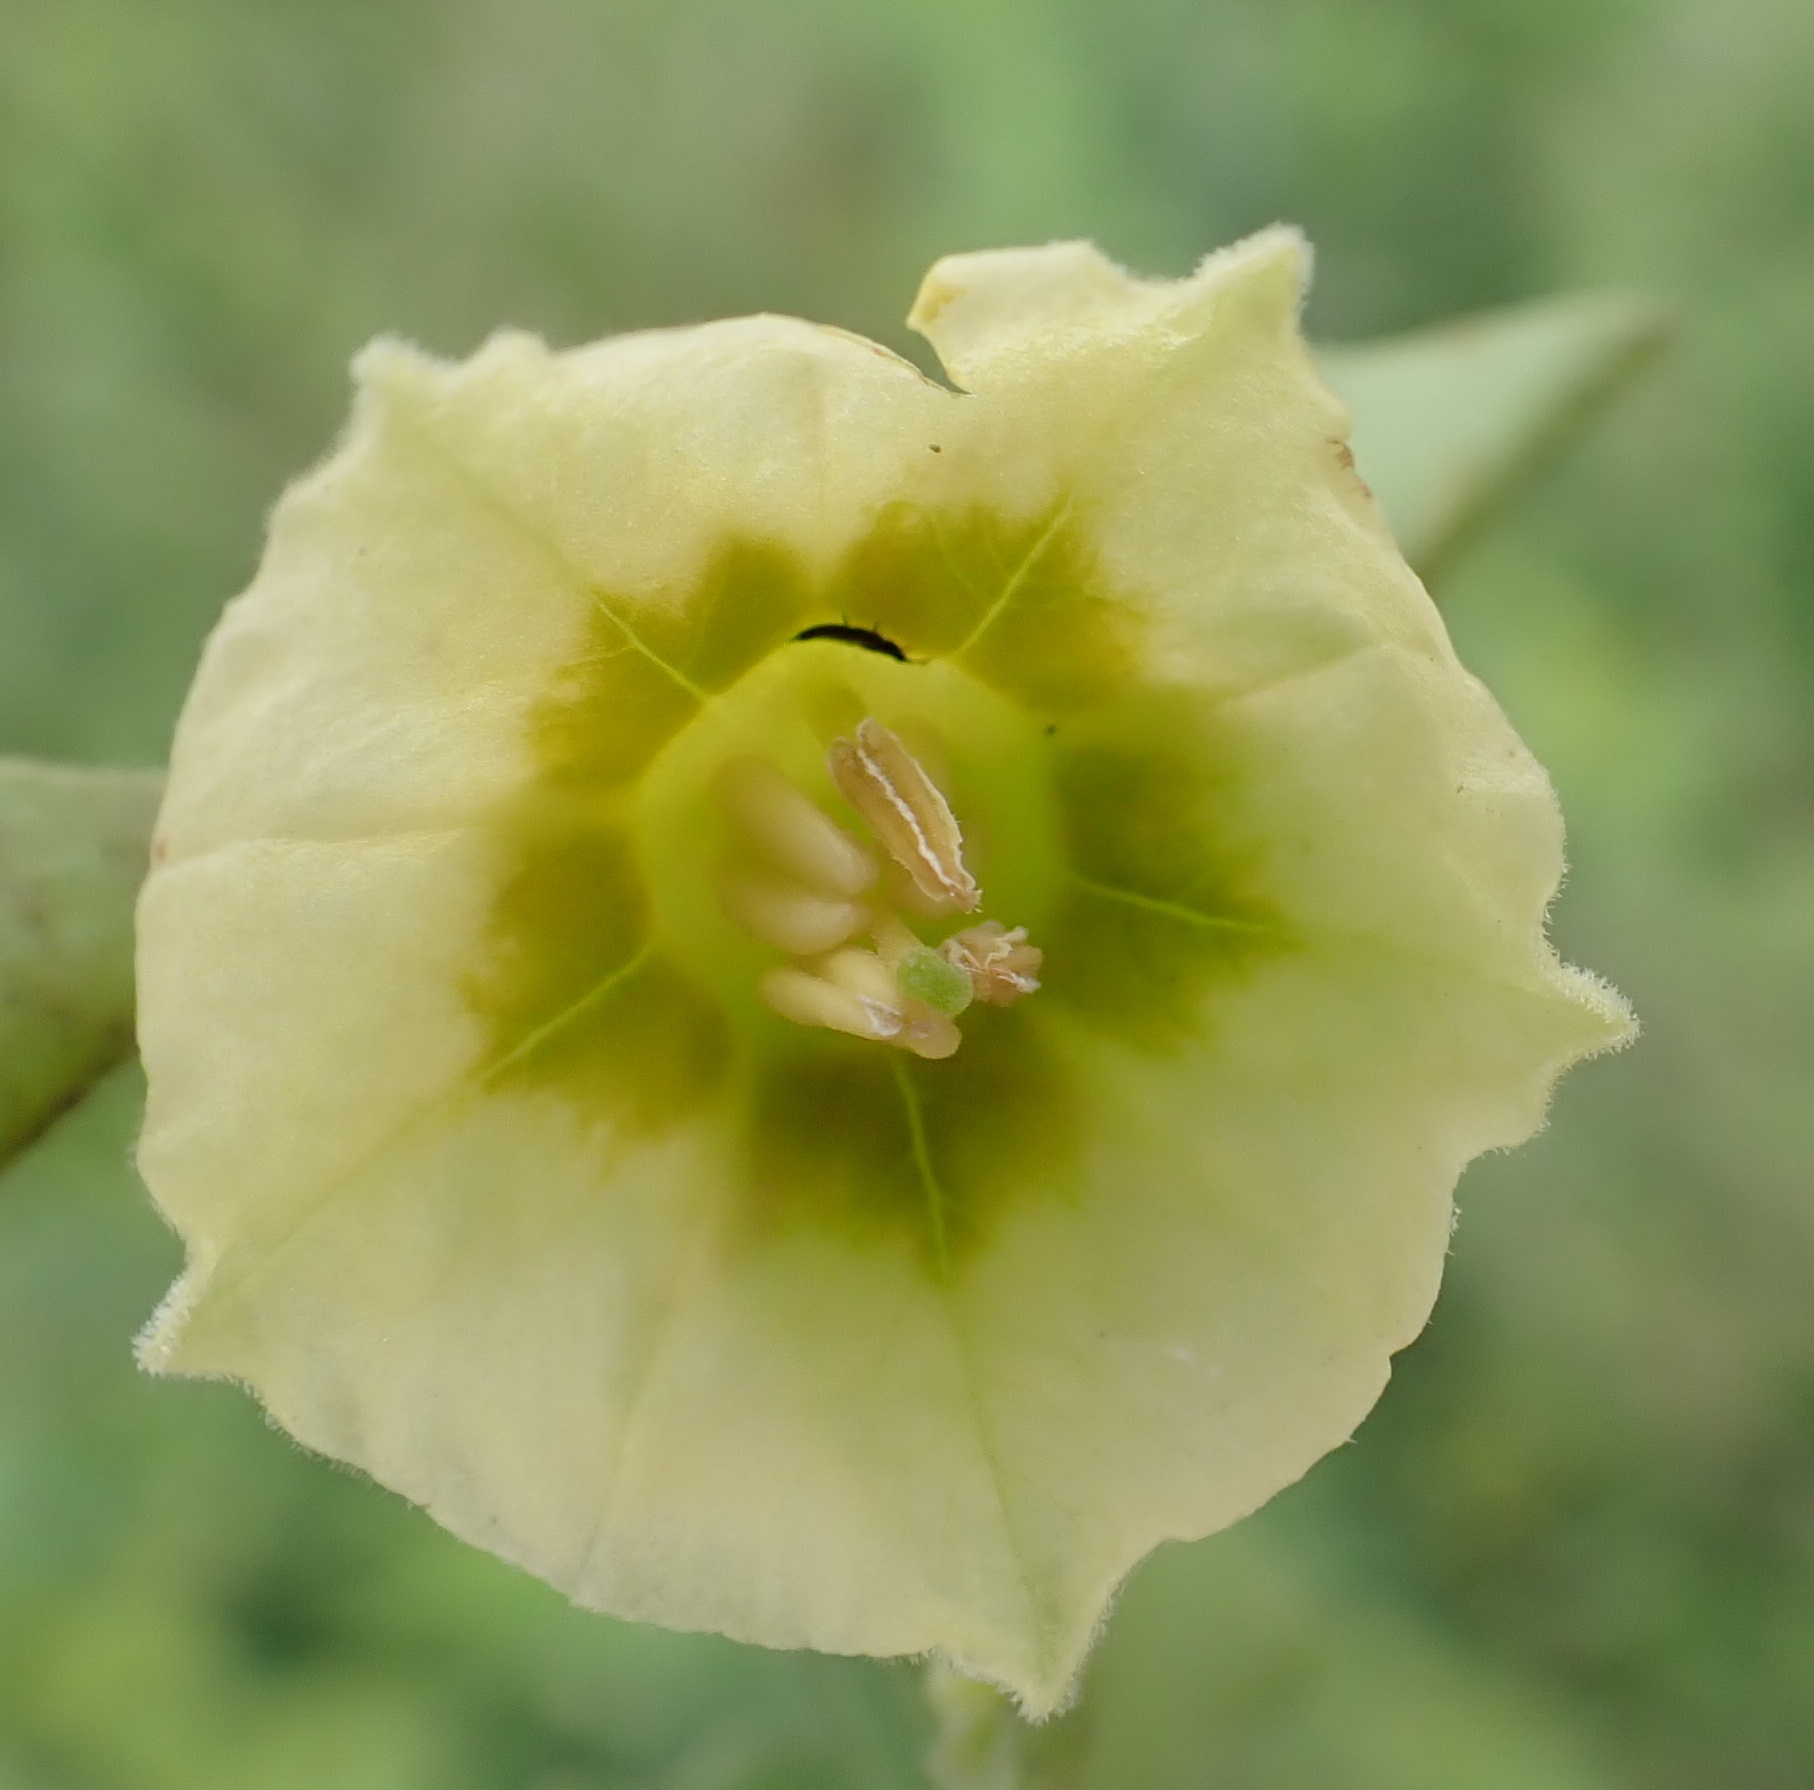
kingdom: Plantae
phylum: Tracheophyta
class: Magnoliopsida
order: Solanales
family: Solanaceae
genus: Physalis
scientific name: Physalis viscosa
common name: Stellate ground-cherry
